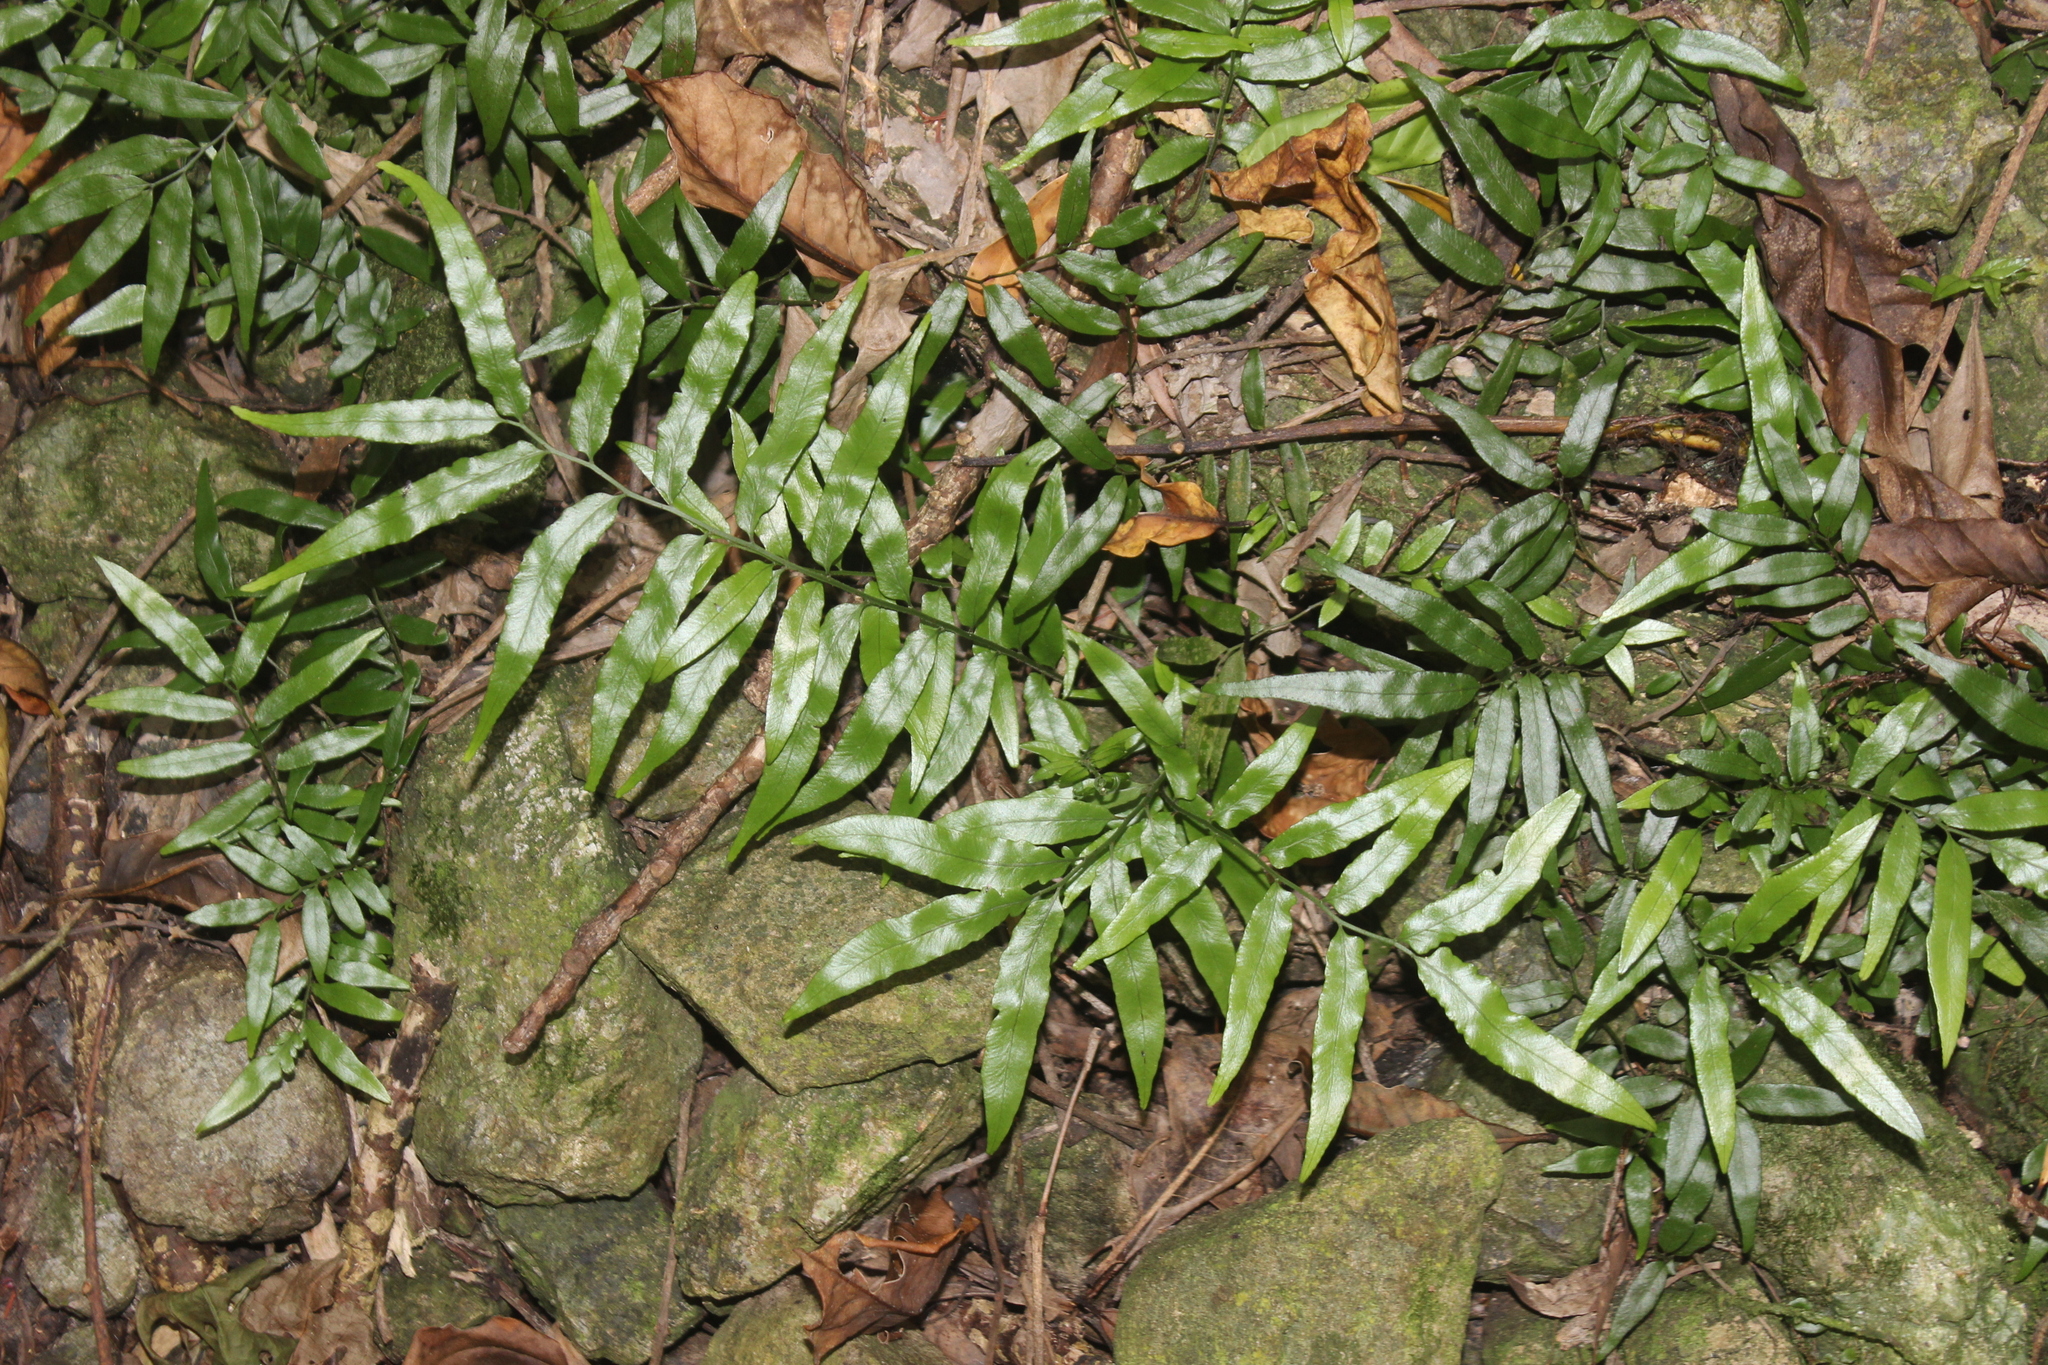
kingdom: Plantae
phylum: Tracheophyta
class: Polypodiopsida
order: Polypodiales
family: Tectariaceae
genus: Arthropteris
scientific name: Arthropteris tenella
